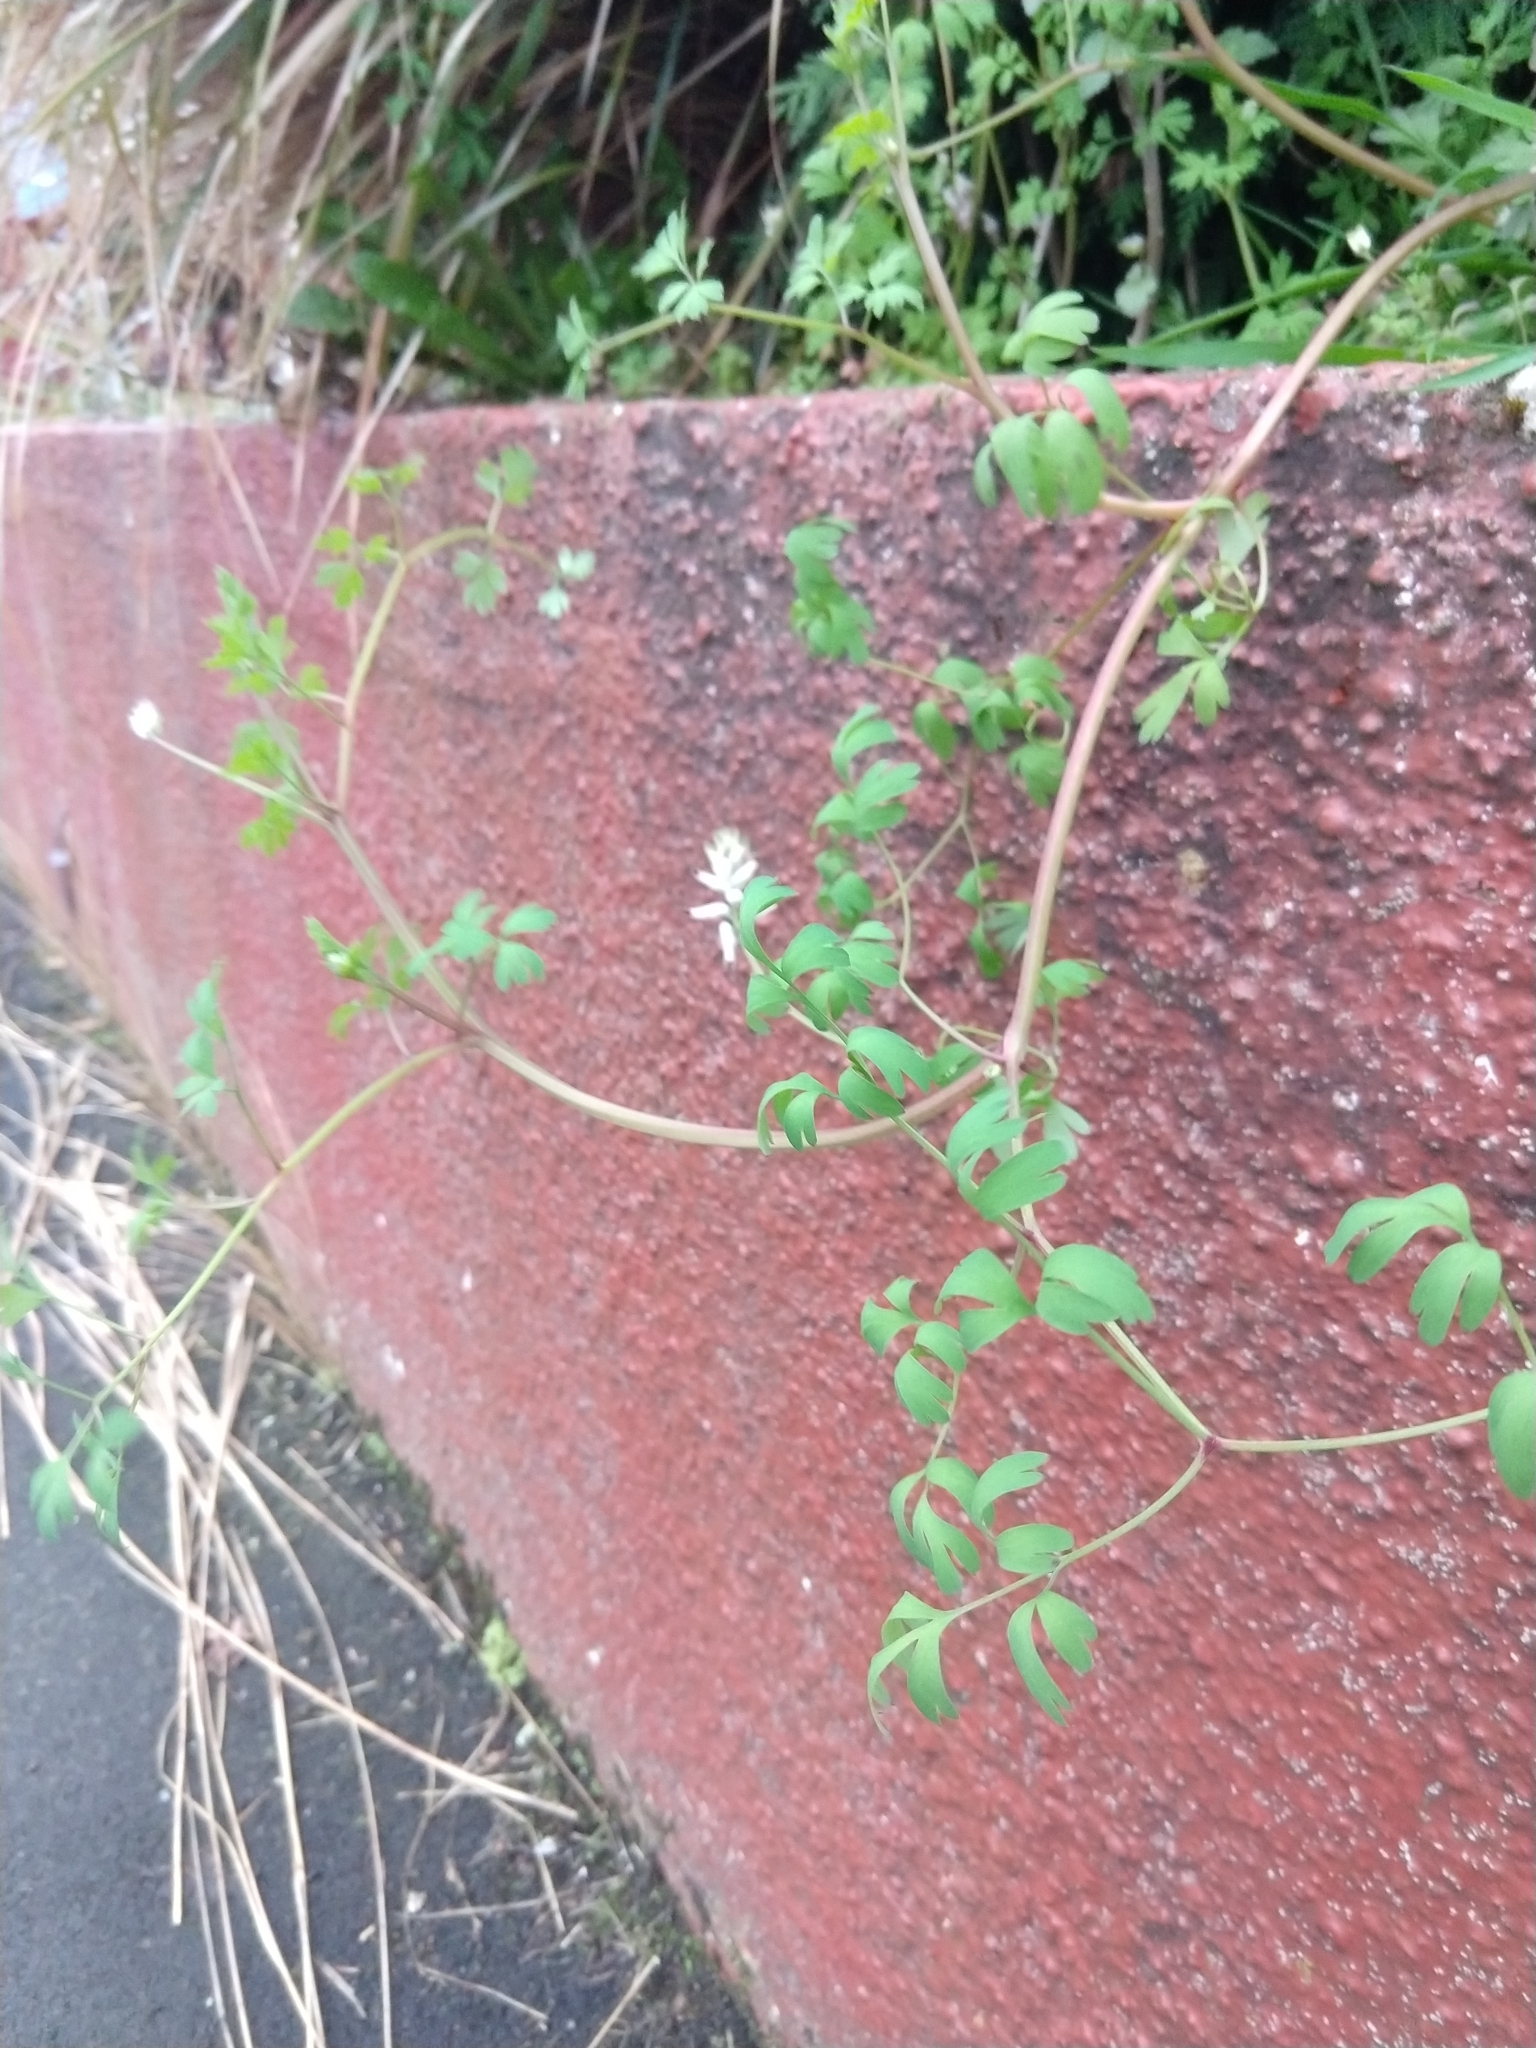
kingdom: Plantae
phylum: Tracheophyta
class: Magnoliopsida
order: Ranunculales
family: Papaveraceae
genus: Fumaria
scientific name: Fumaria capreolata
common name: White ramping-fumitory
